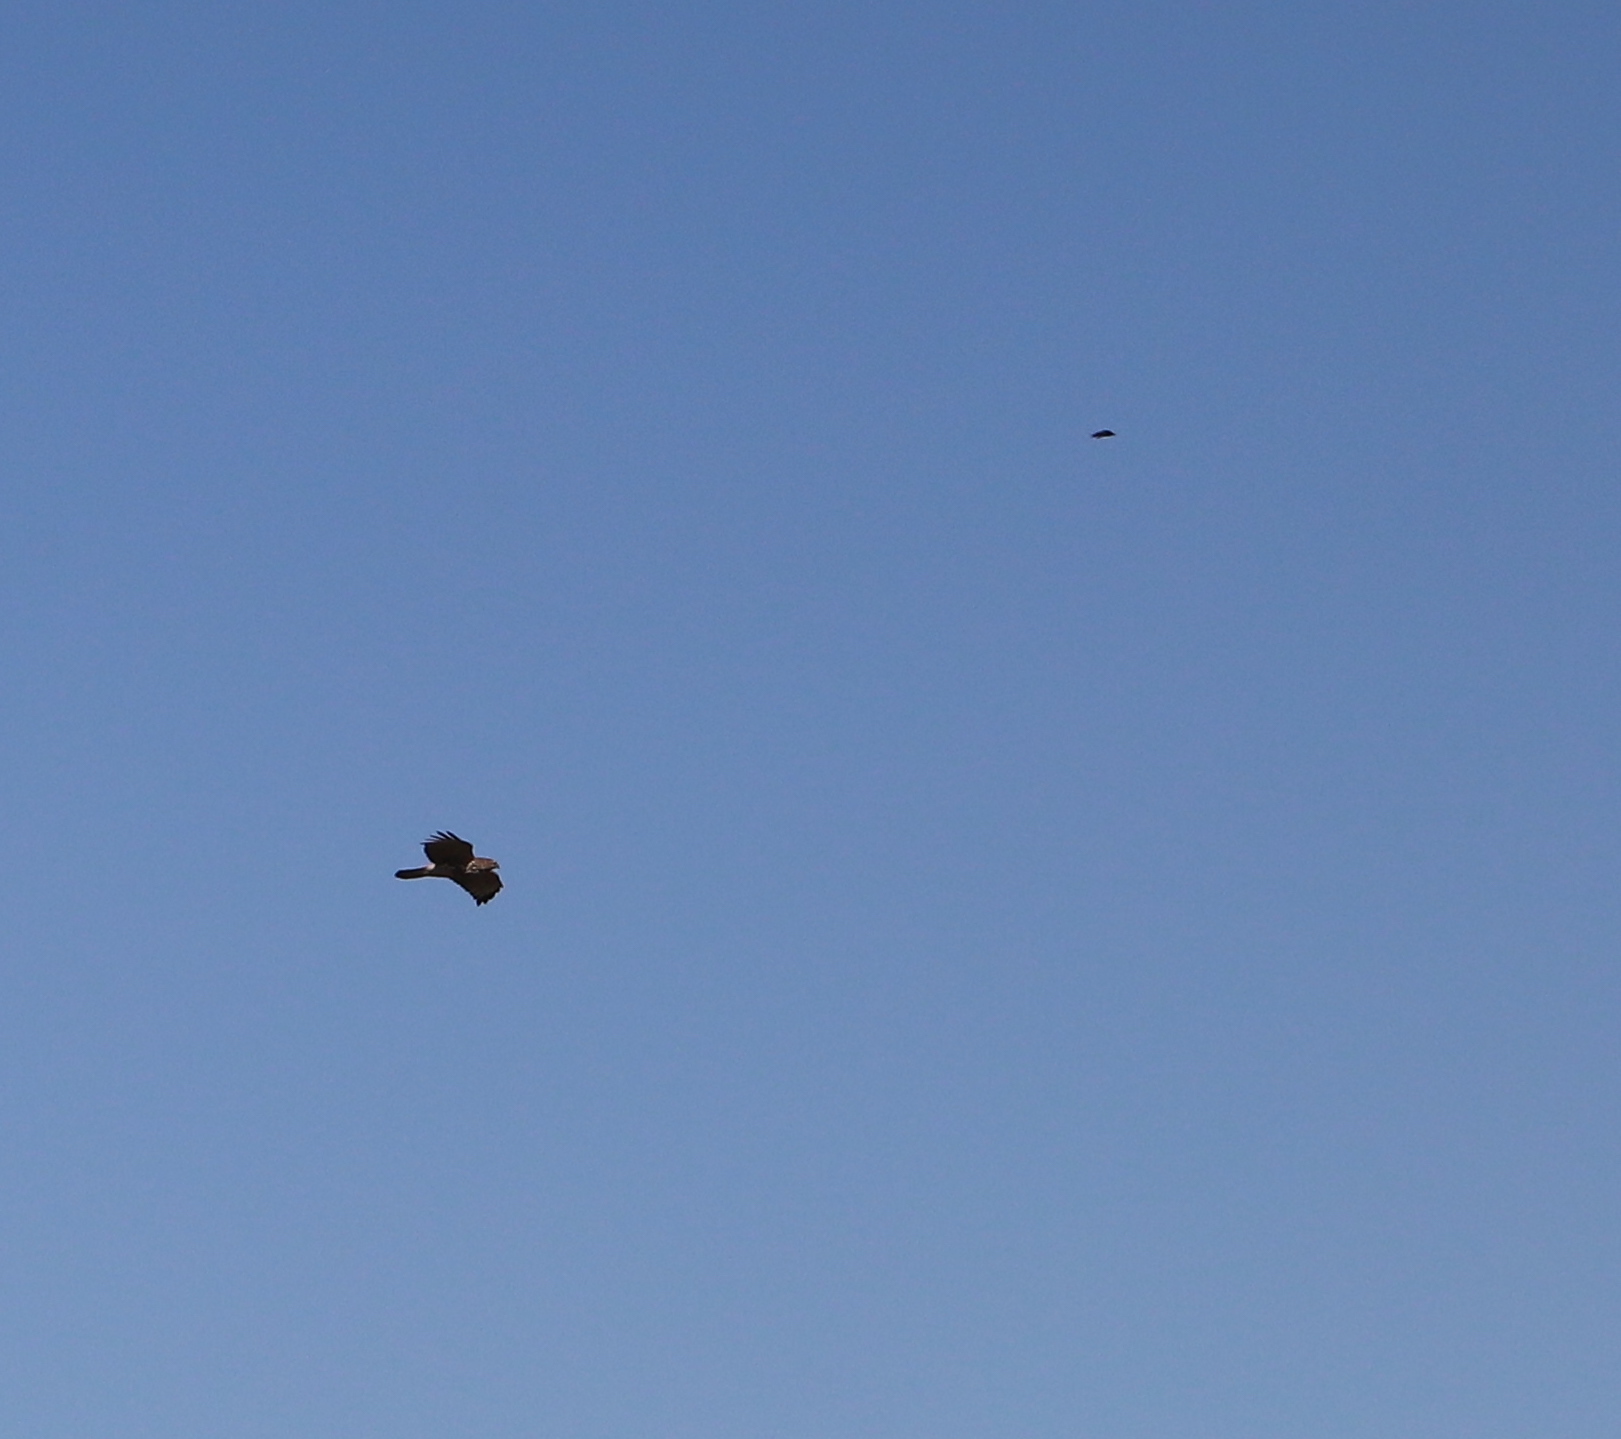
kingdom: Animalia
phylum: Chordata
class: Aves
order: Accipitriformes
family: Accipitridae
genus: Buteo
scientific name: Buteo lineatus
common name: Red-shouldered hawk
